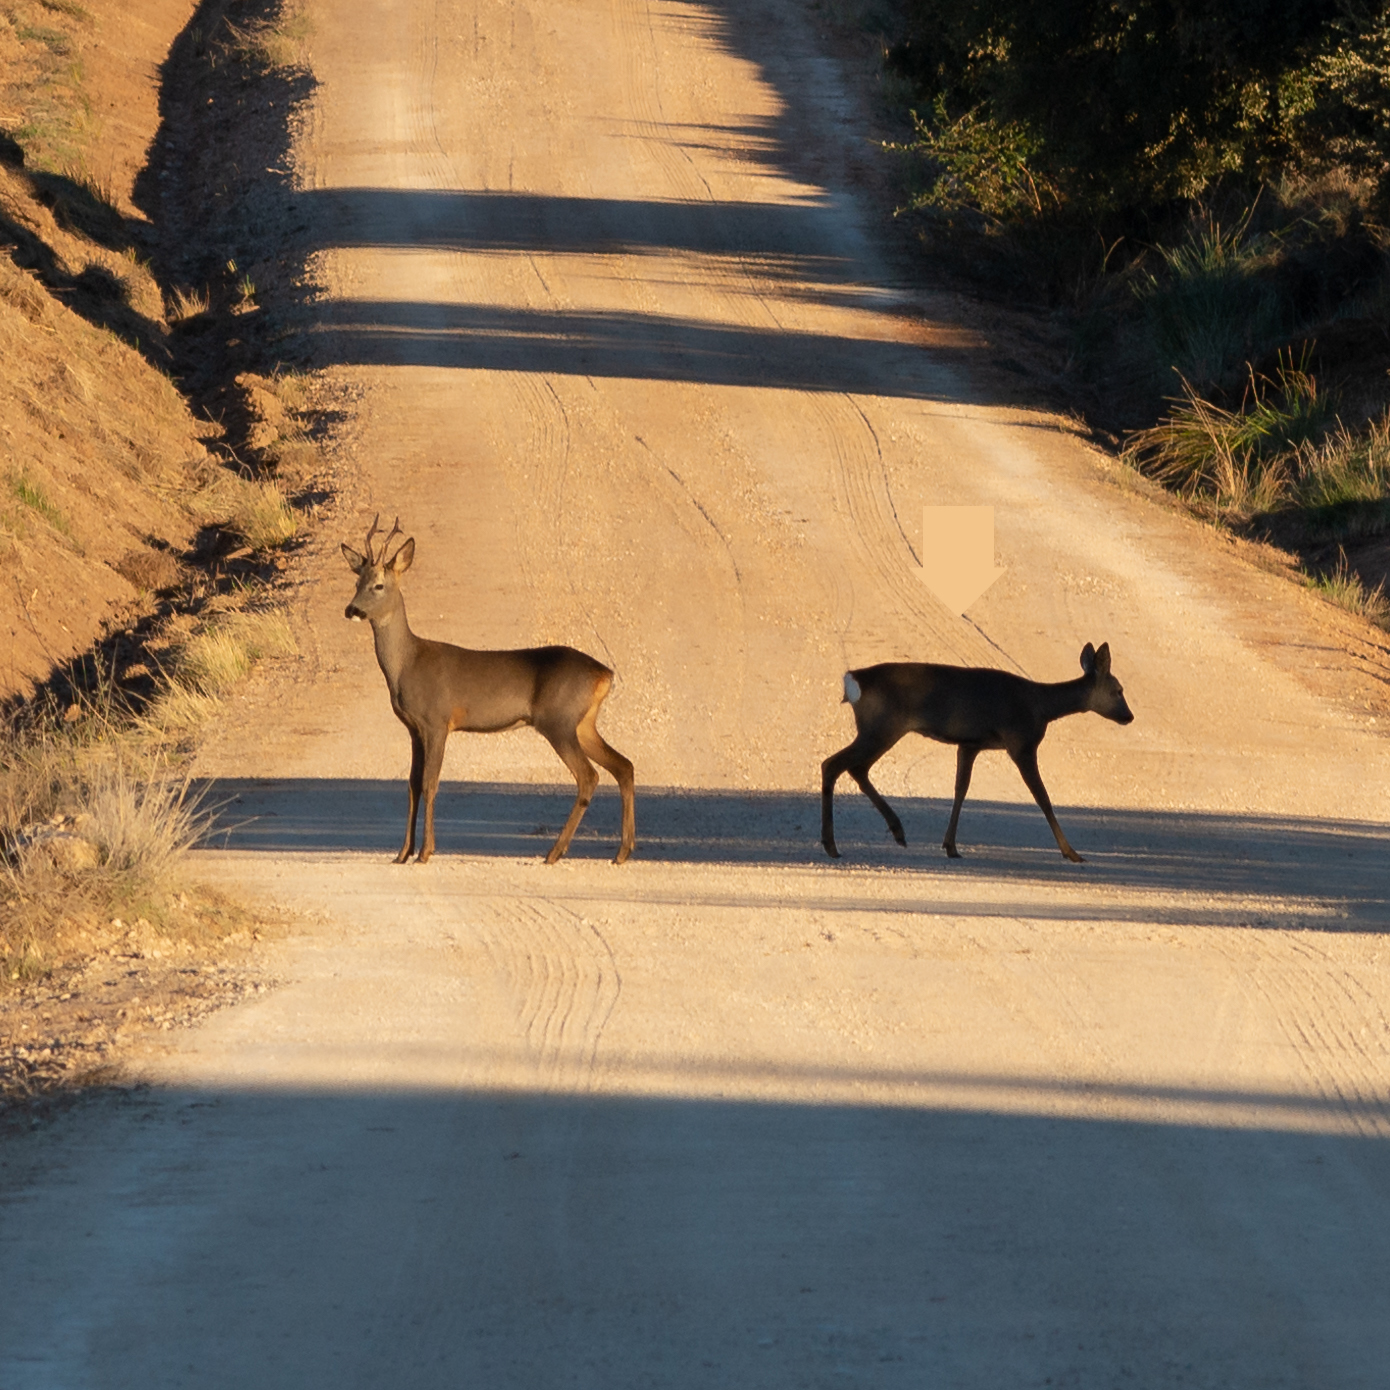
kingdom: Animalia
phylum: Chordata
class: Mammalia
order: Artiodactyla
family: Cervidae
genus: Capreolus
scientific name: Capreolus capreolus
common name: Western roe deer
